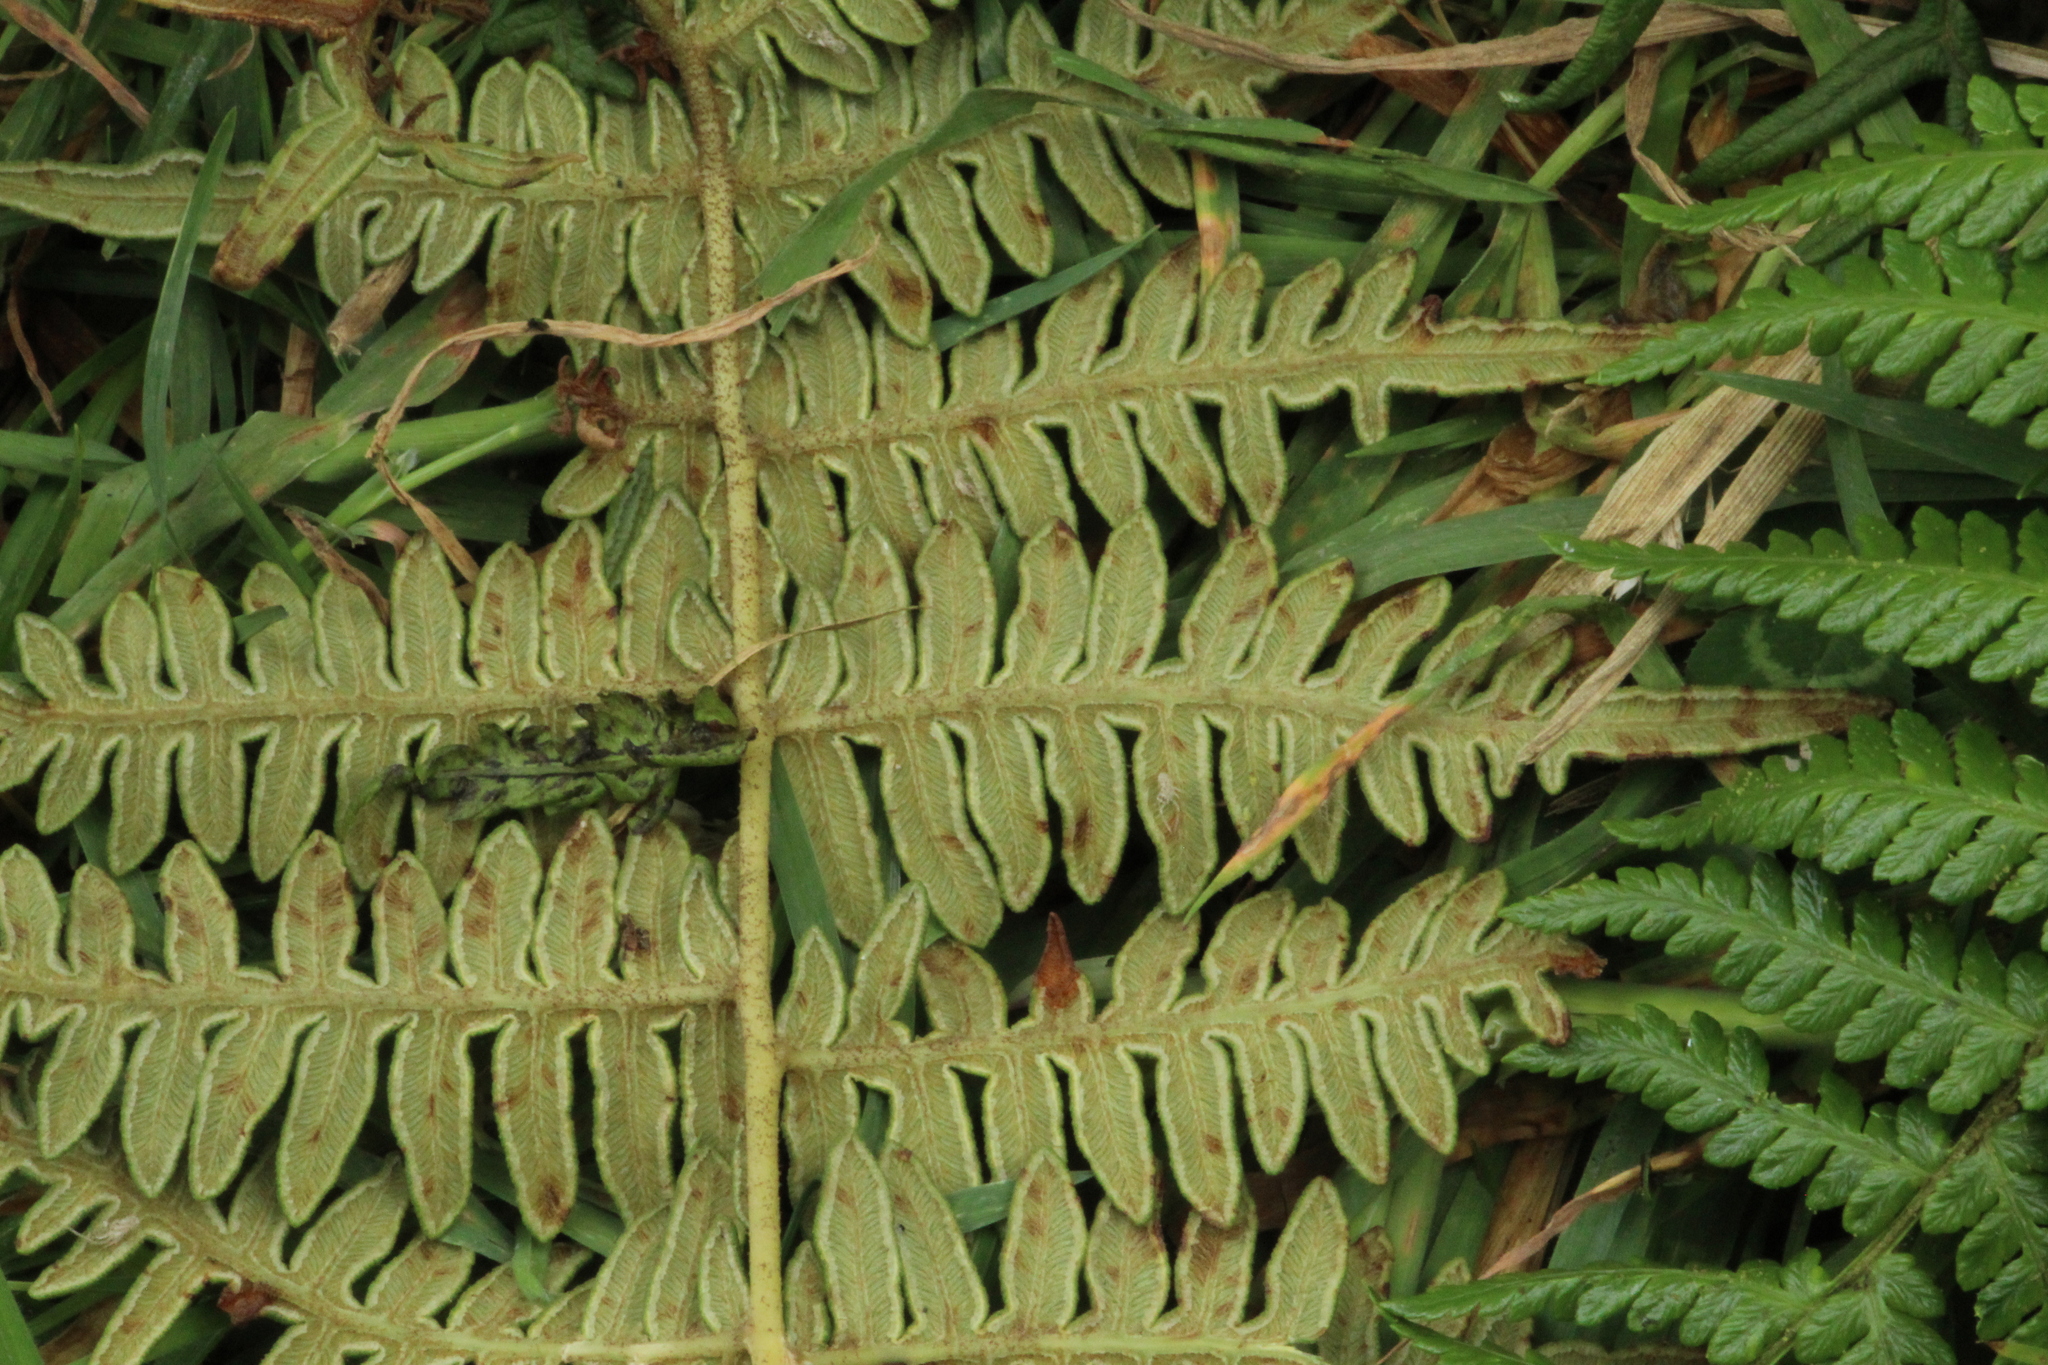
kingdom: Plantae
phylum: Tracheophyta
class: Polypodiopsida
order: Polypodiales
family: Dennstaedtiaceae
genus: Pteridium
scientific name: Pteridium esculentum
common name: Bracken fern
